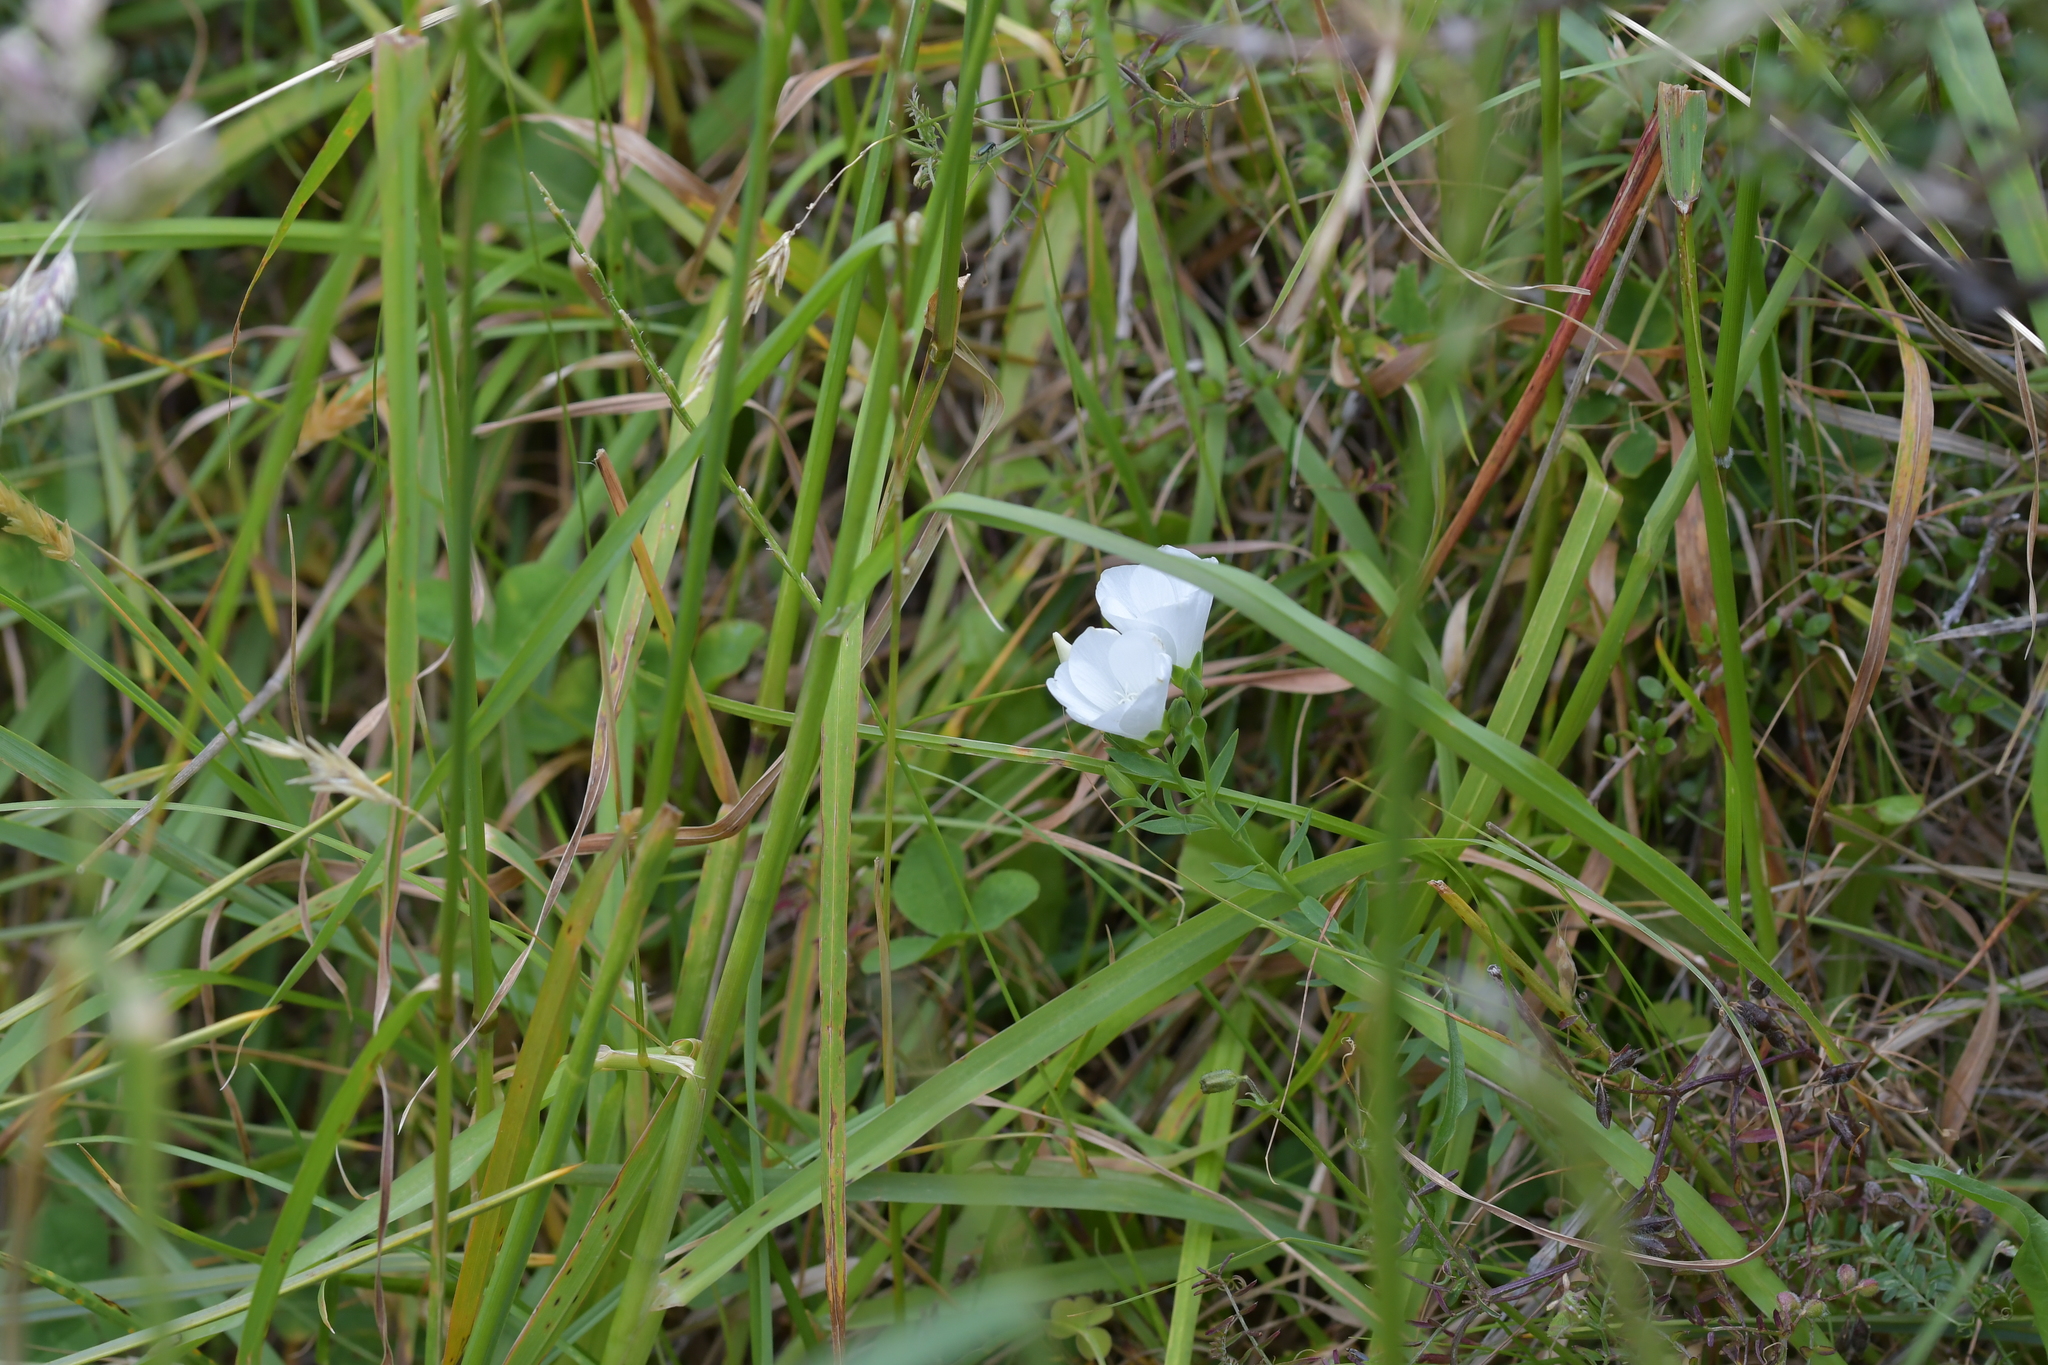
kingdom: Plantae
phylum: Tracheophyta
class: Magnoliopsida
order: Malpighiales
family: Linaceae
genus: Linum
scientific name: Linum monogynum
